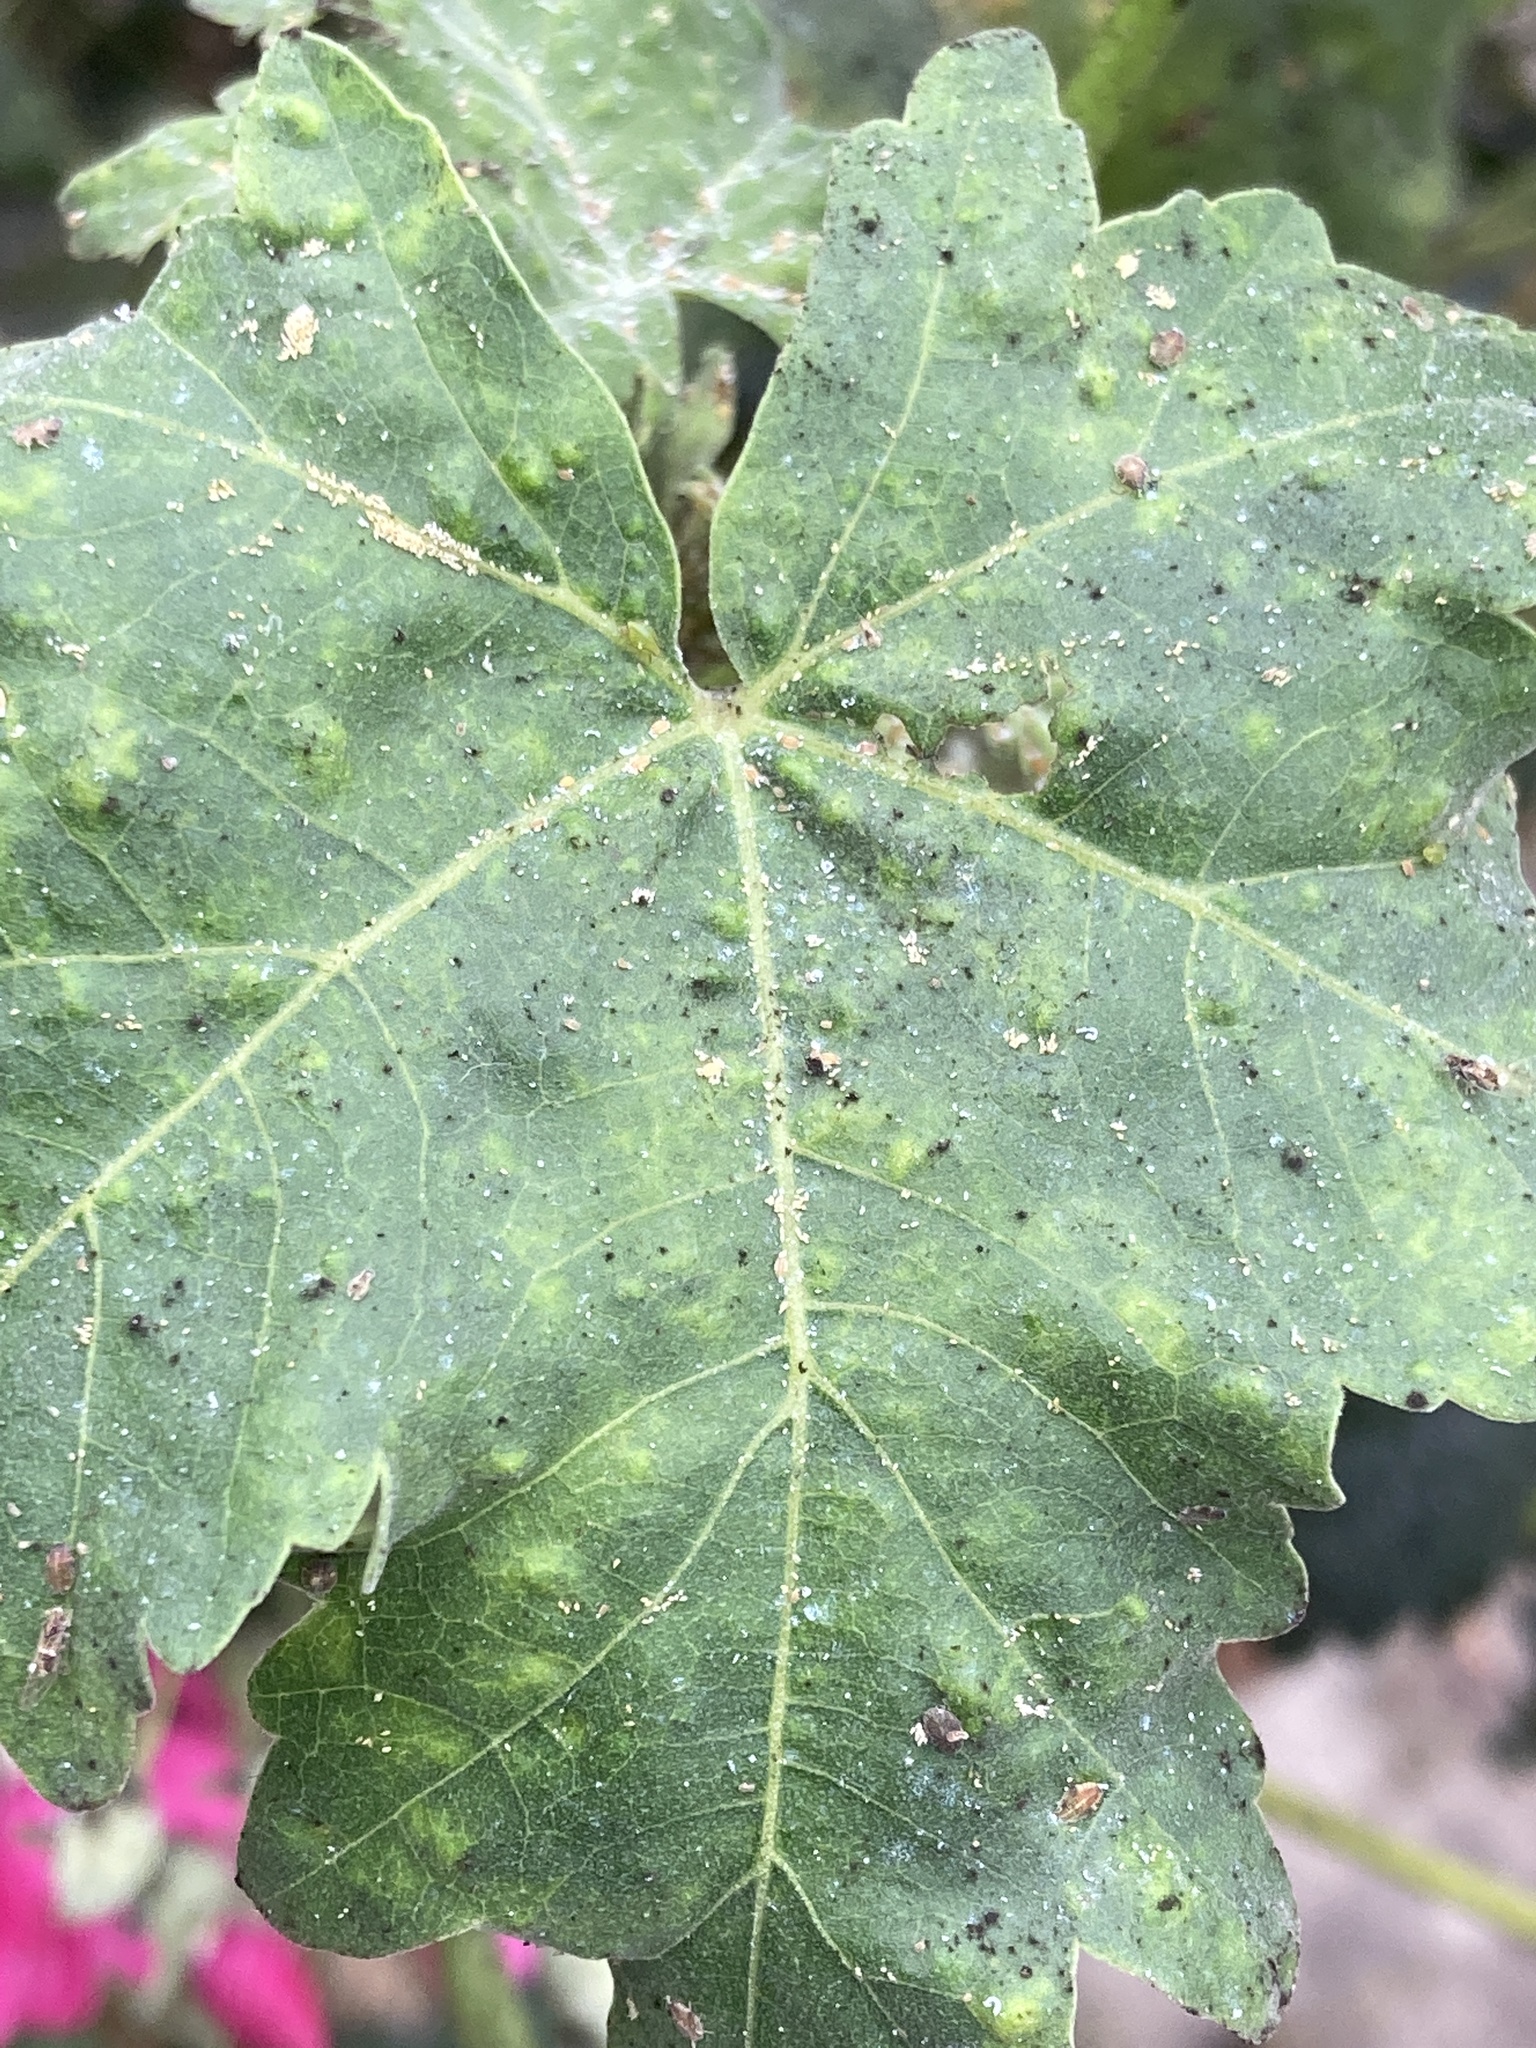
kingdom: Animalia
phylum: Arthropoda
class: Insecta
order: Hemiptera
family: Triozidae
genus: Bactericera
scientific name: Bactericera lavaterae
